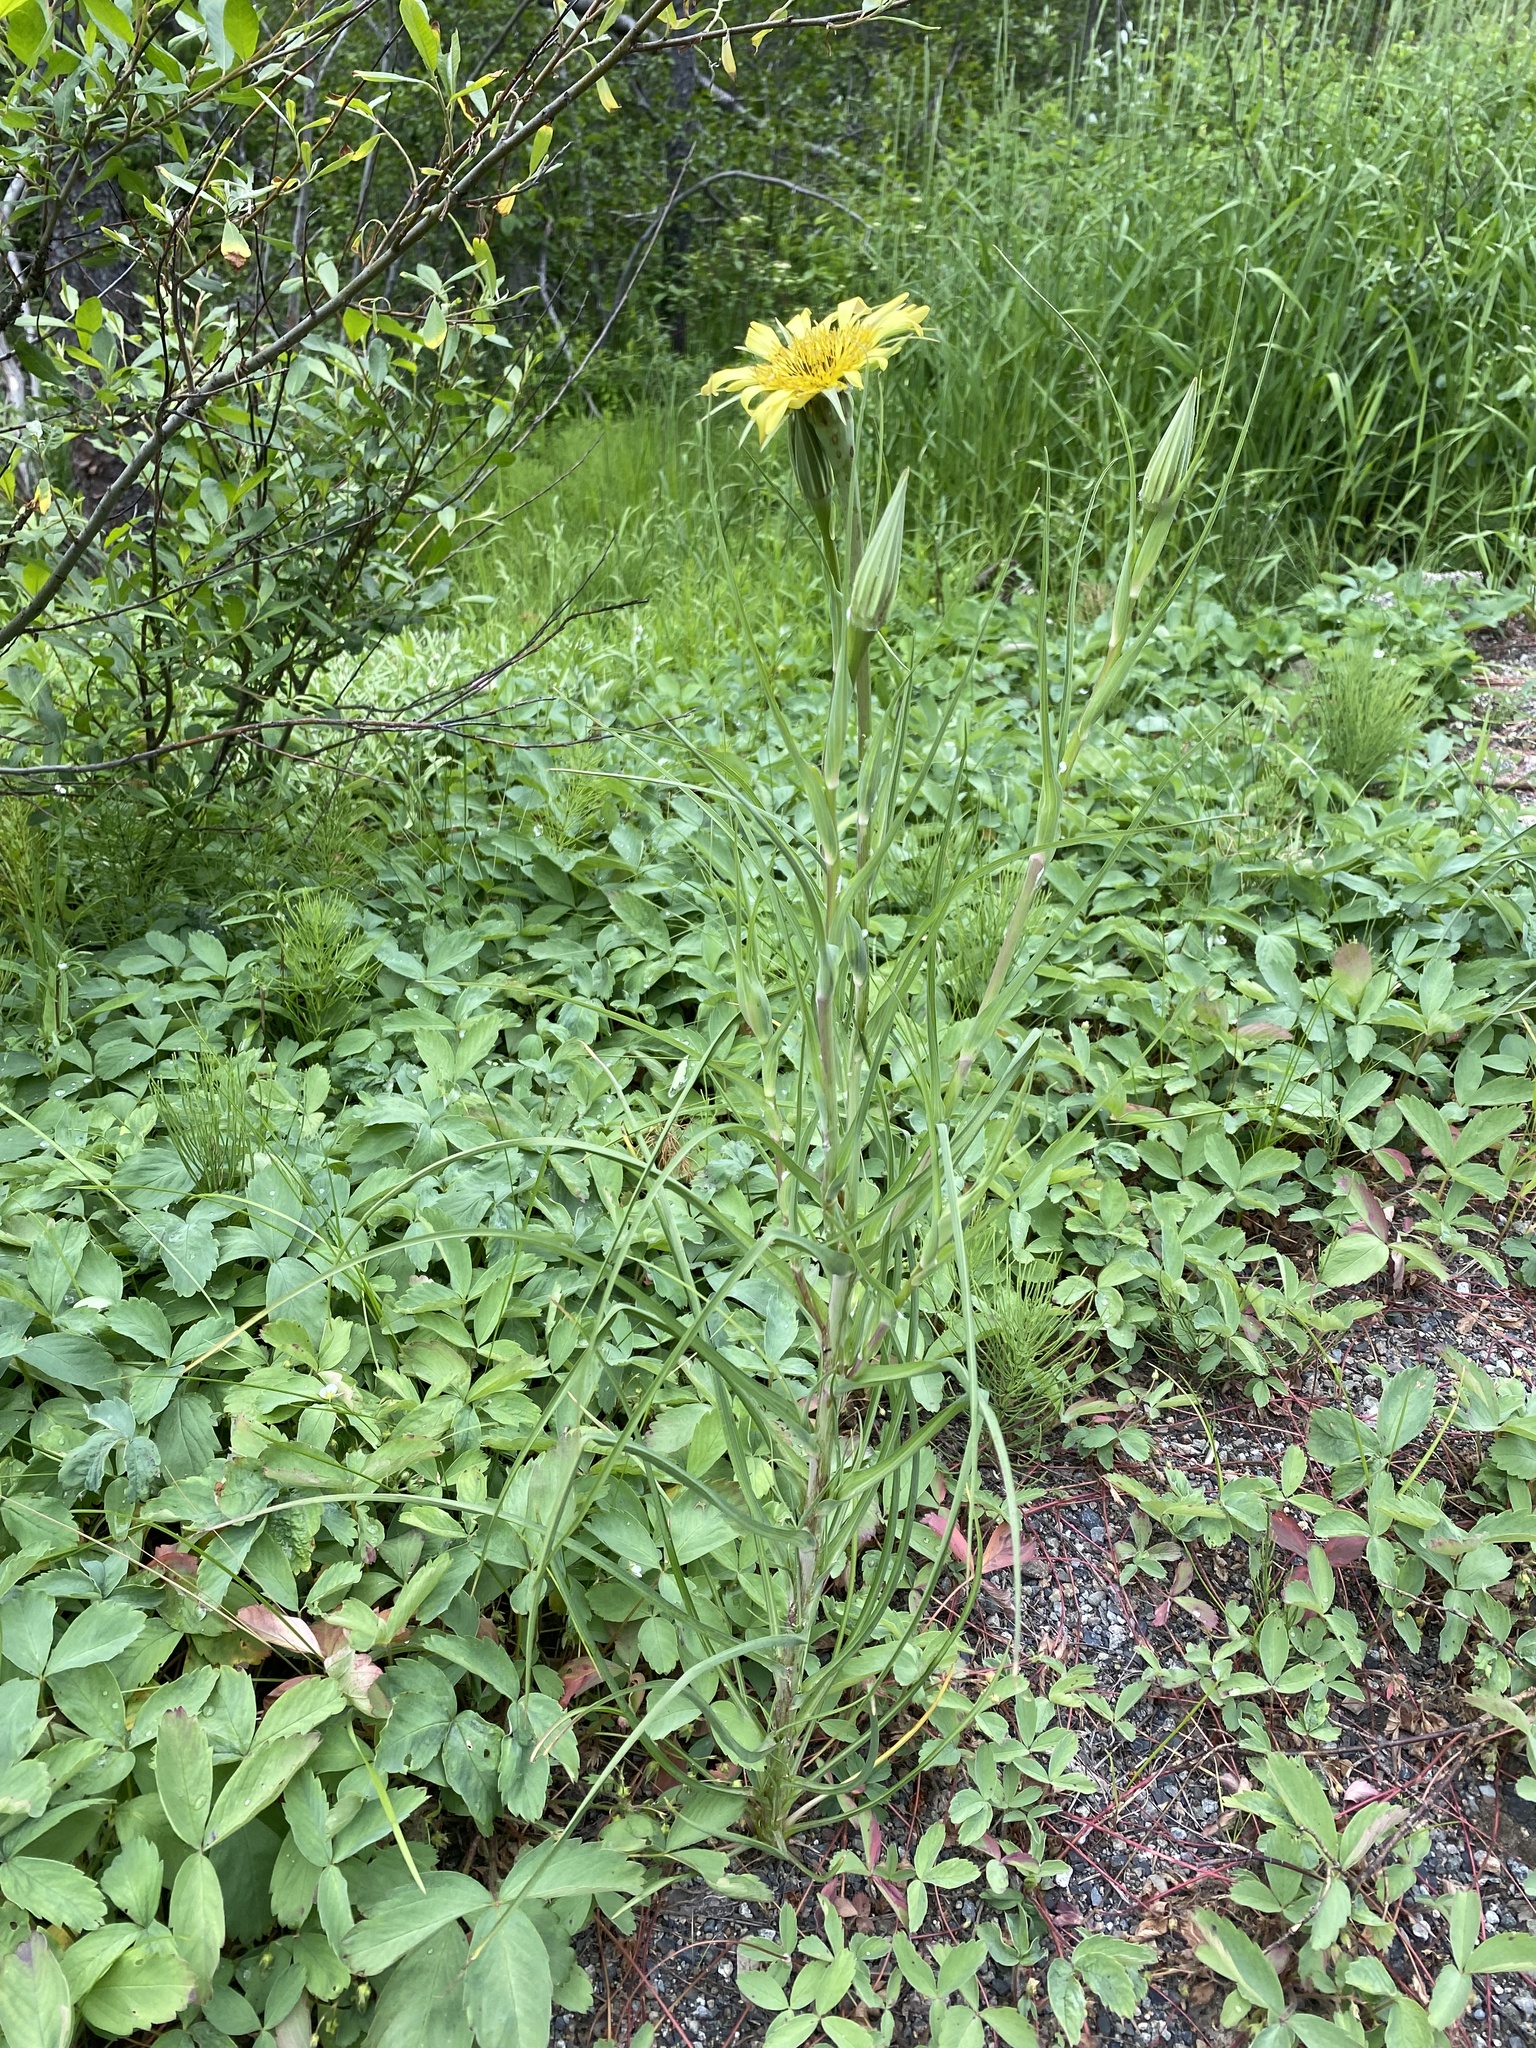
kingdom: Plantae
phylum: Tracheophyta
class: Magnoliopsida
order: Asterales
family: Asteraceae
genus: Tragopogon
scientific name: Tragopogon dubius
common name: Yellow salsify
